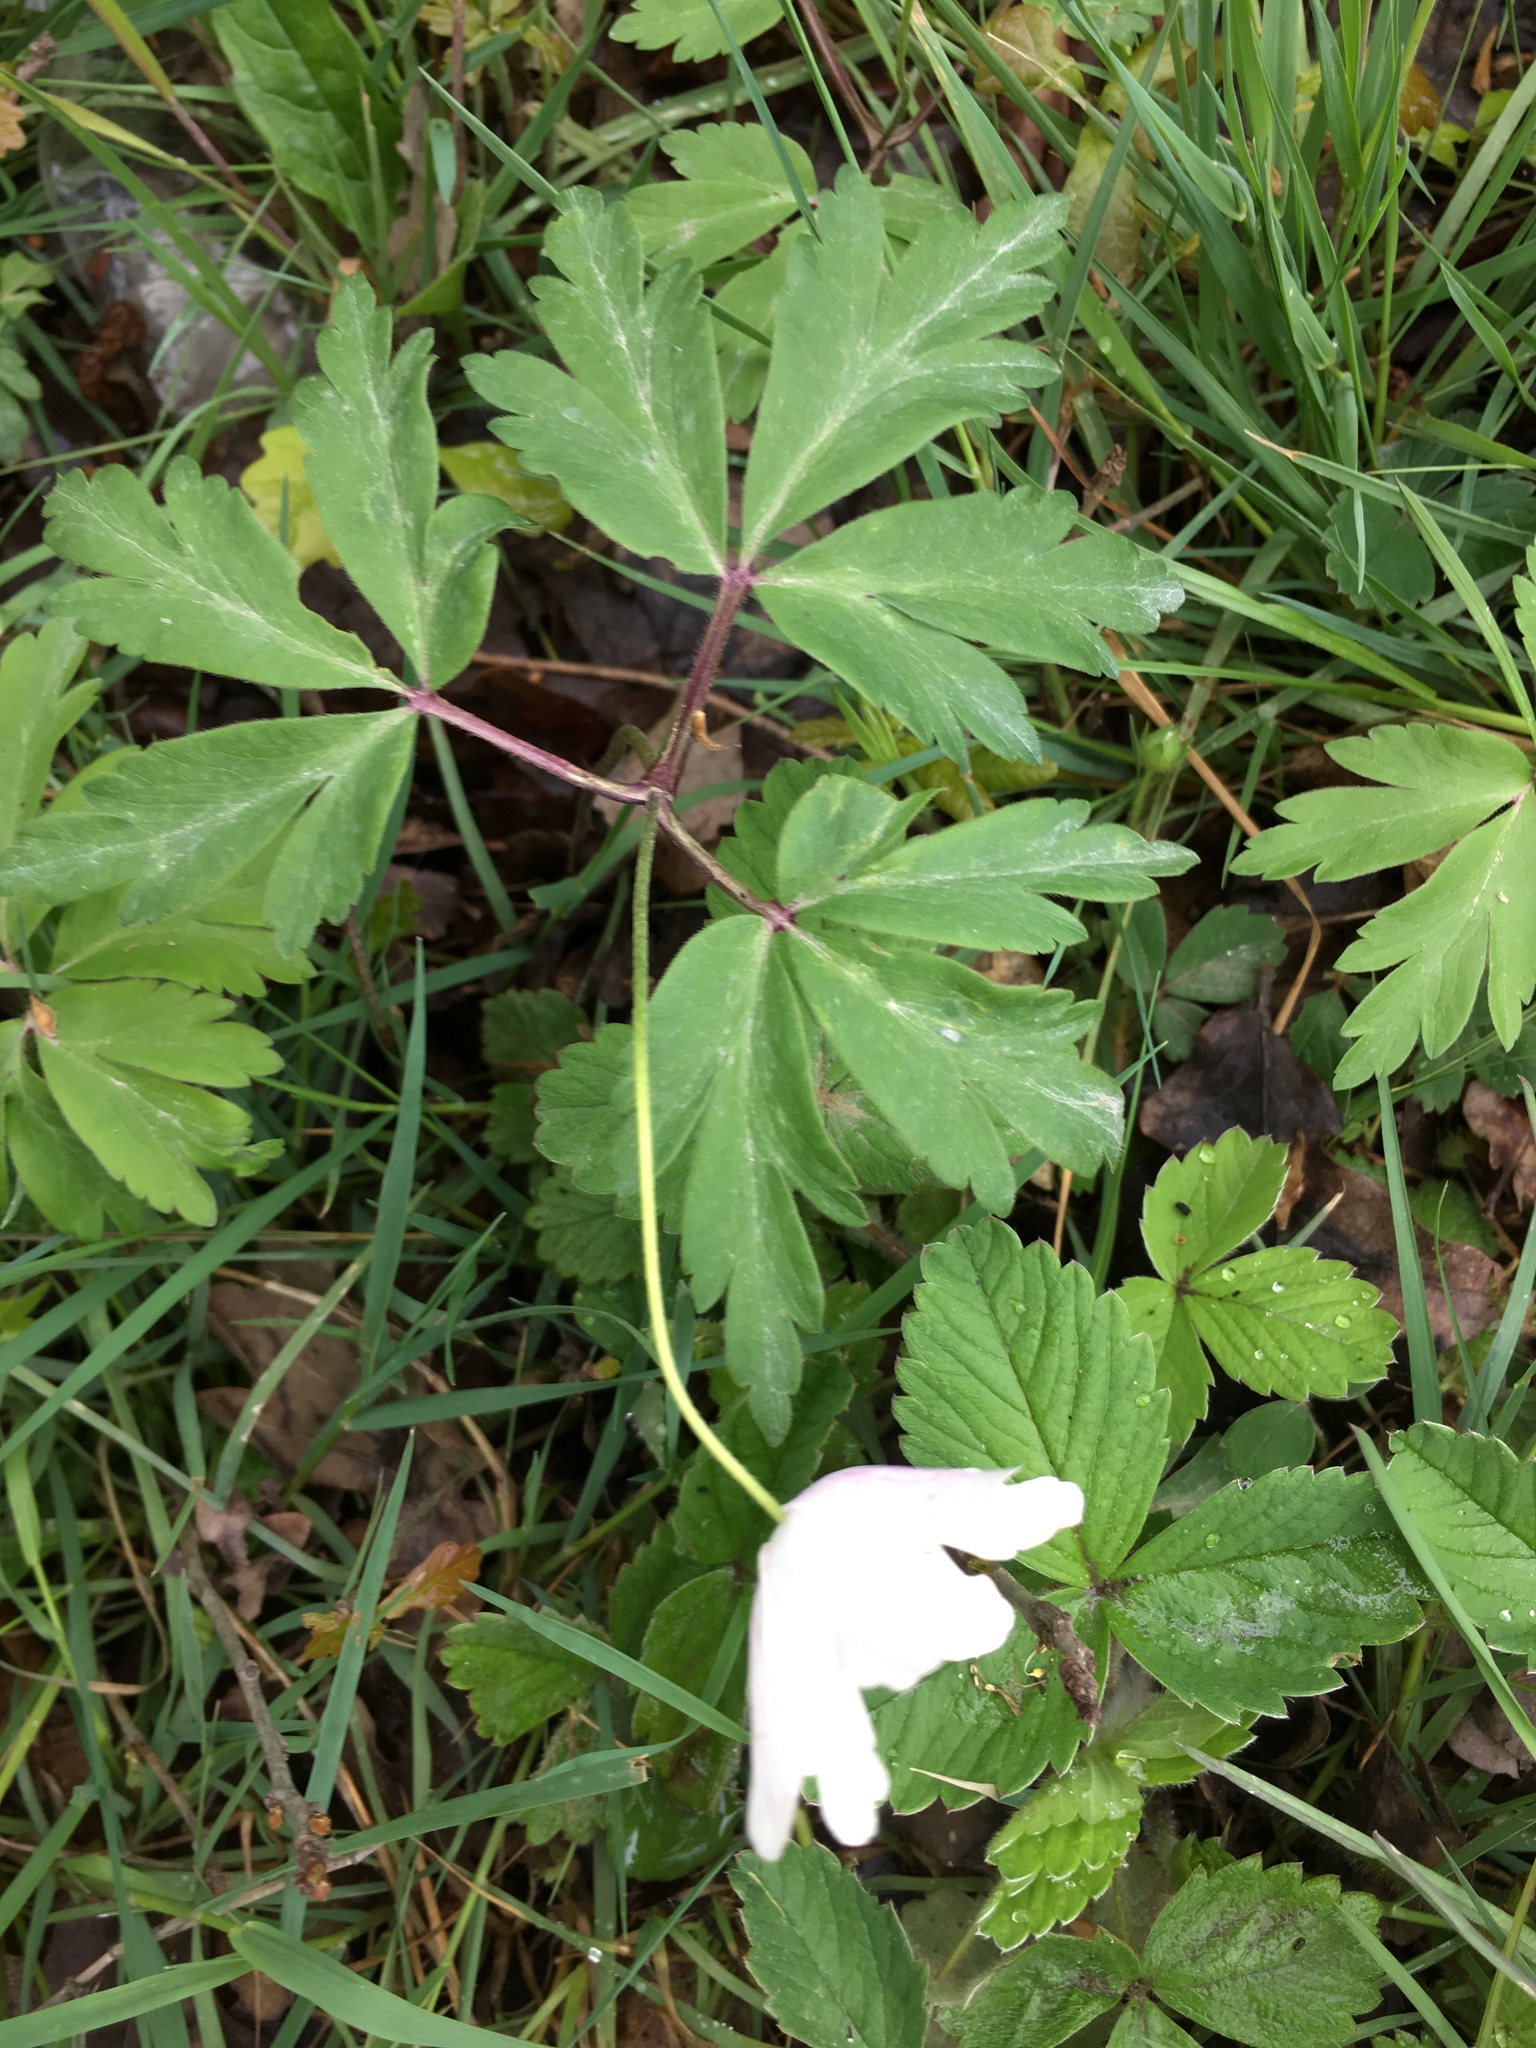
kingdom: Plantae
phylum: Tracheophyta
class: Magnoliopsida
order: Ranunculales
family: Ranunculaceae
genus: Anemone
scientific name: Anemone nemorosa
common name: Wood anemone
